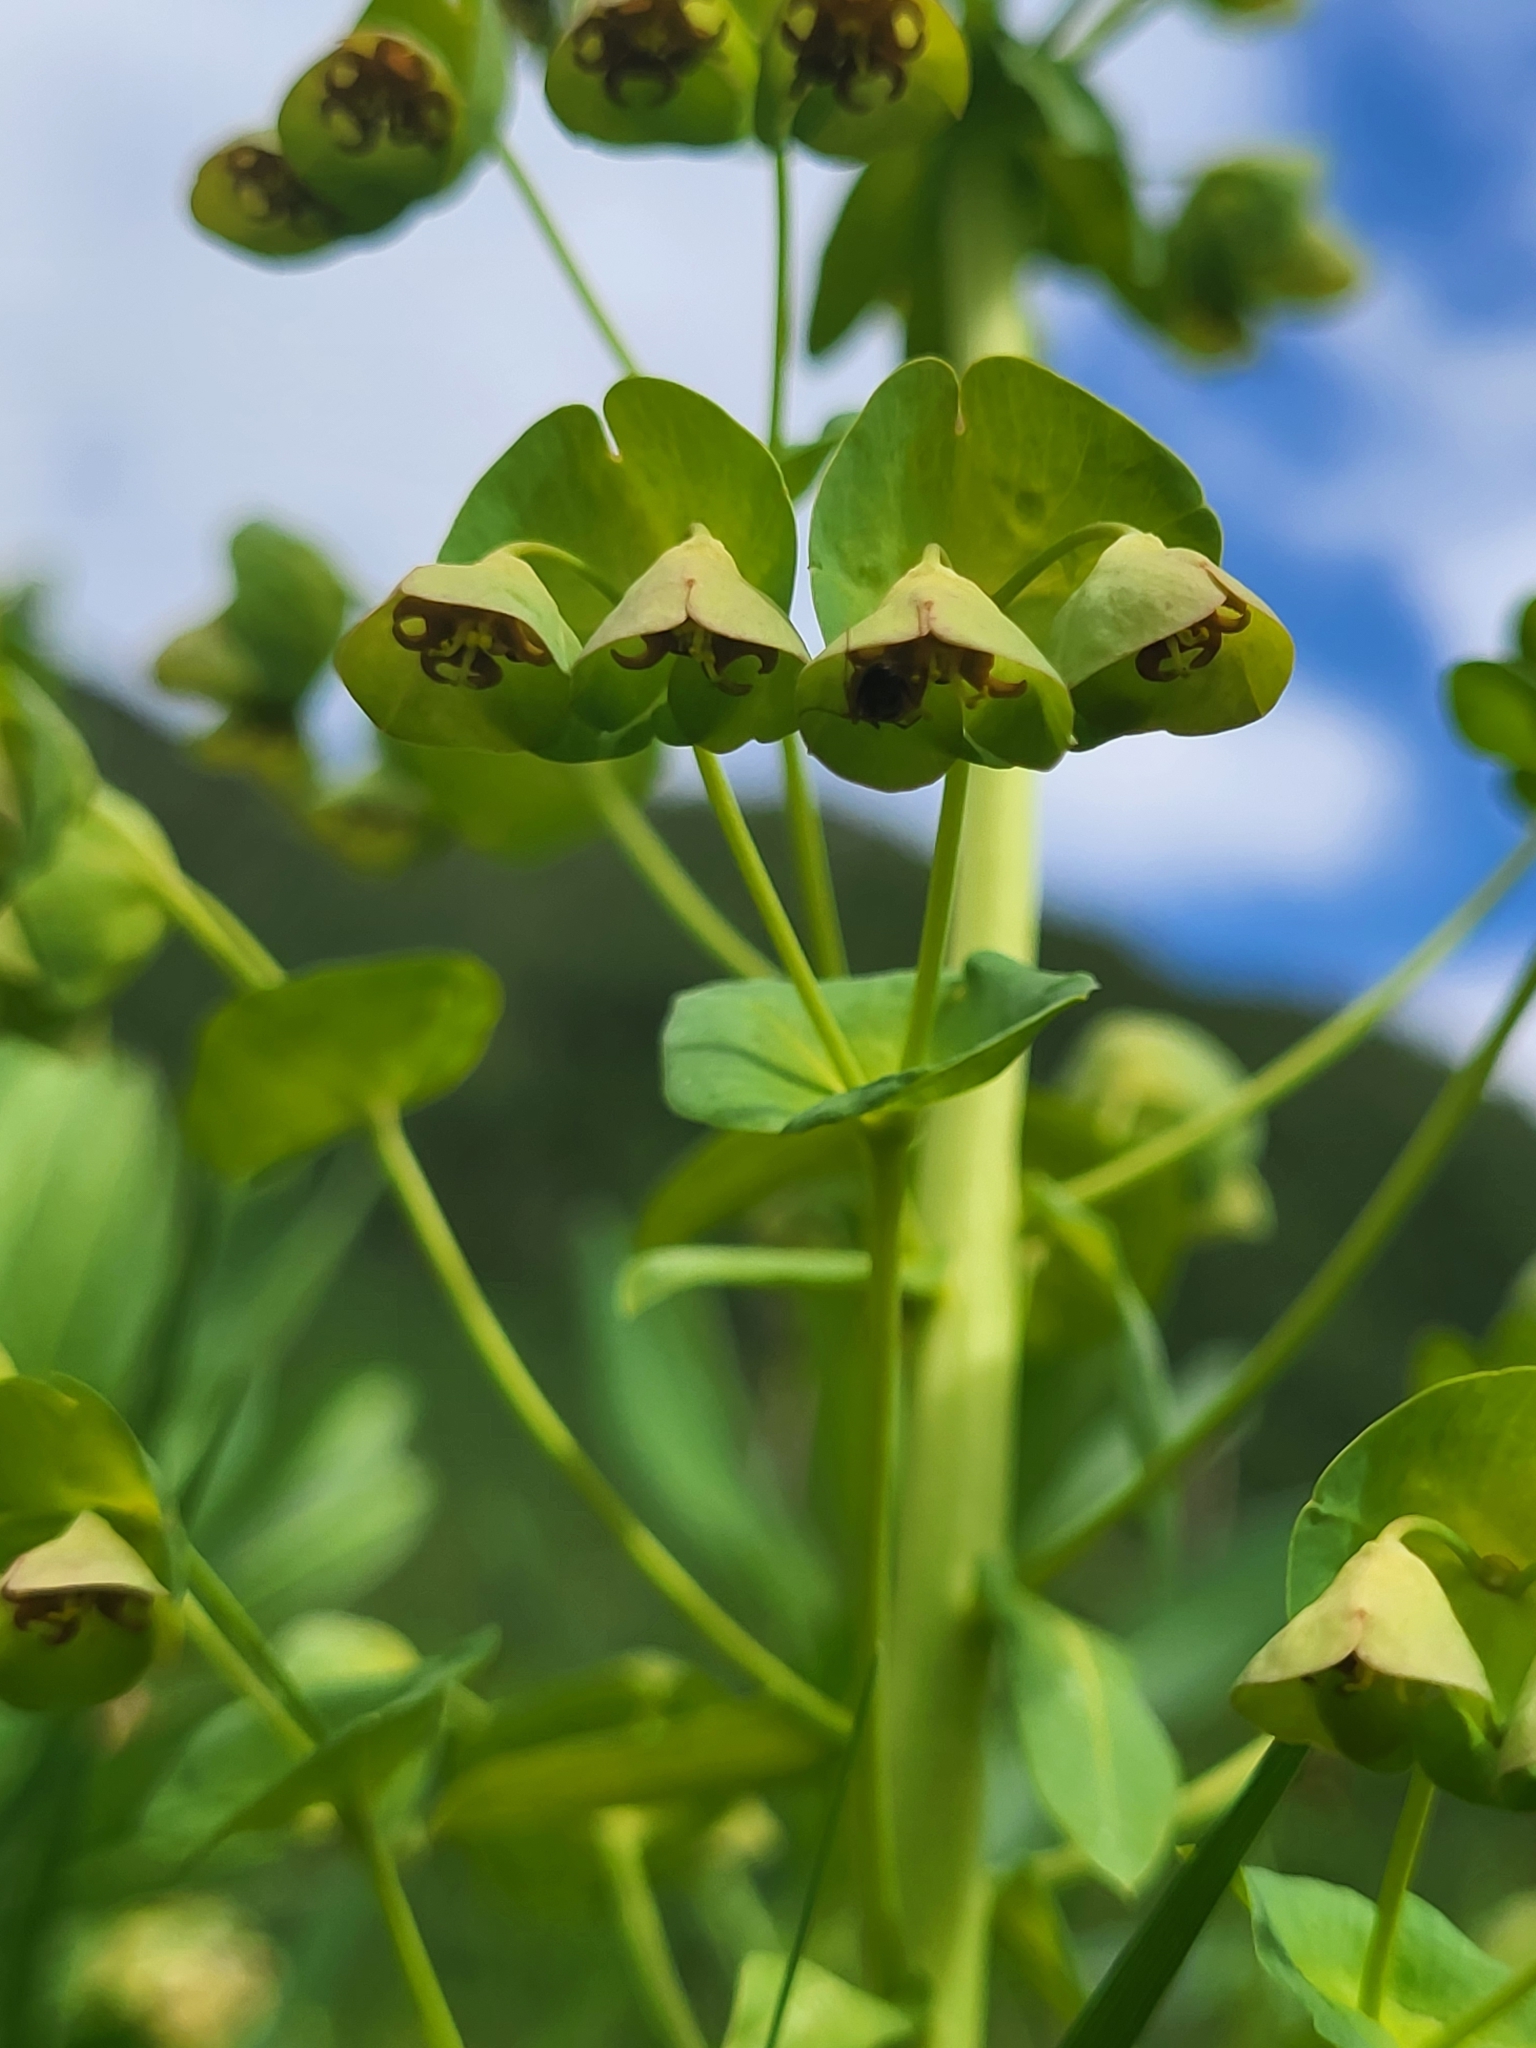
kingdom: Plantae
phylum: Tracheophyta
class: Magnoliopsida
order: Malpighiales
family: Euphorbiaceae
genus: Euphorbia
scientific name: Euphorbia glaberrima
